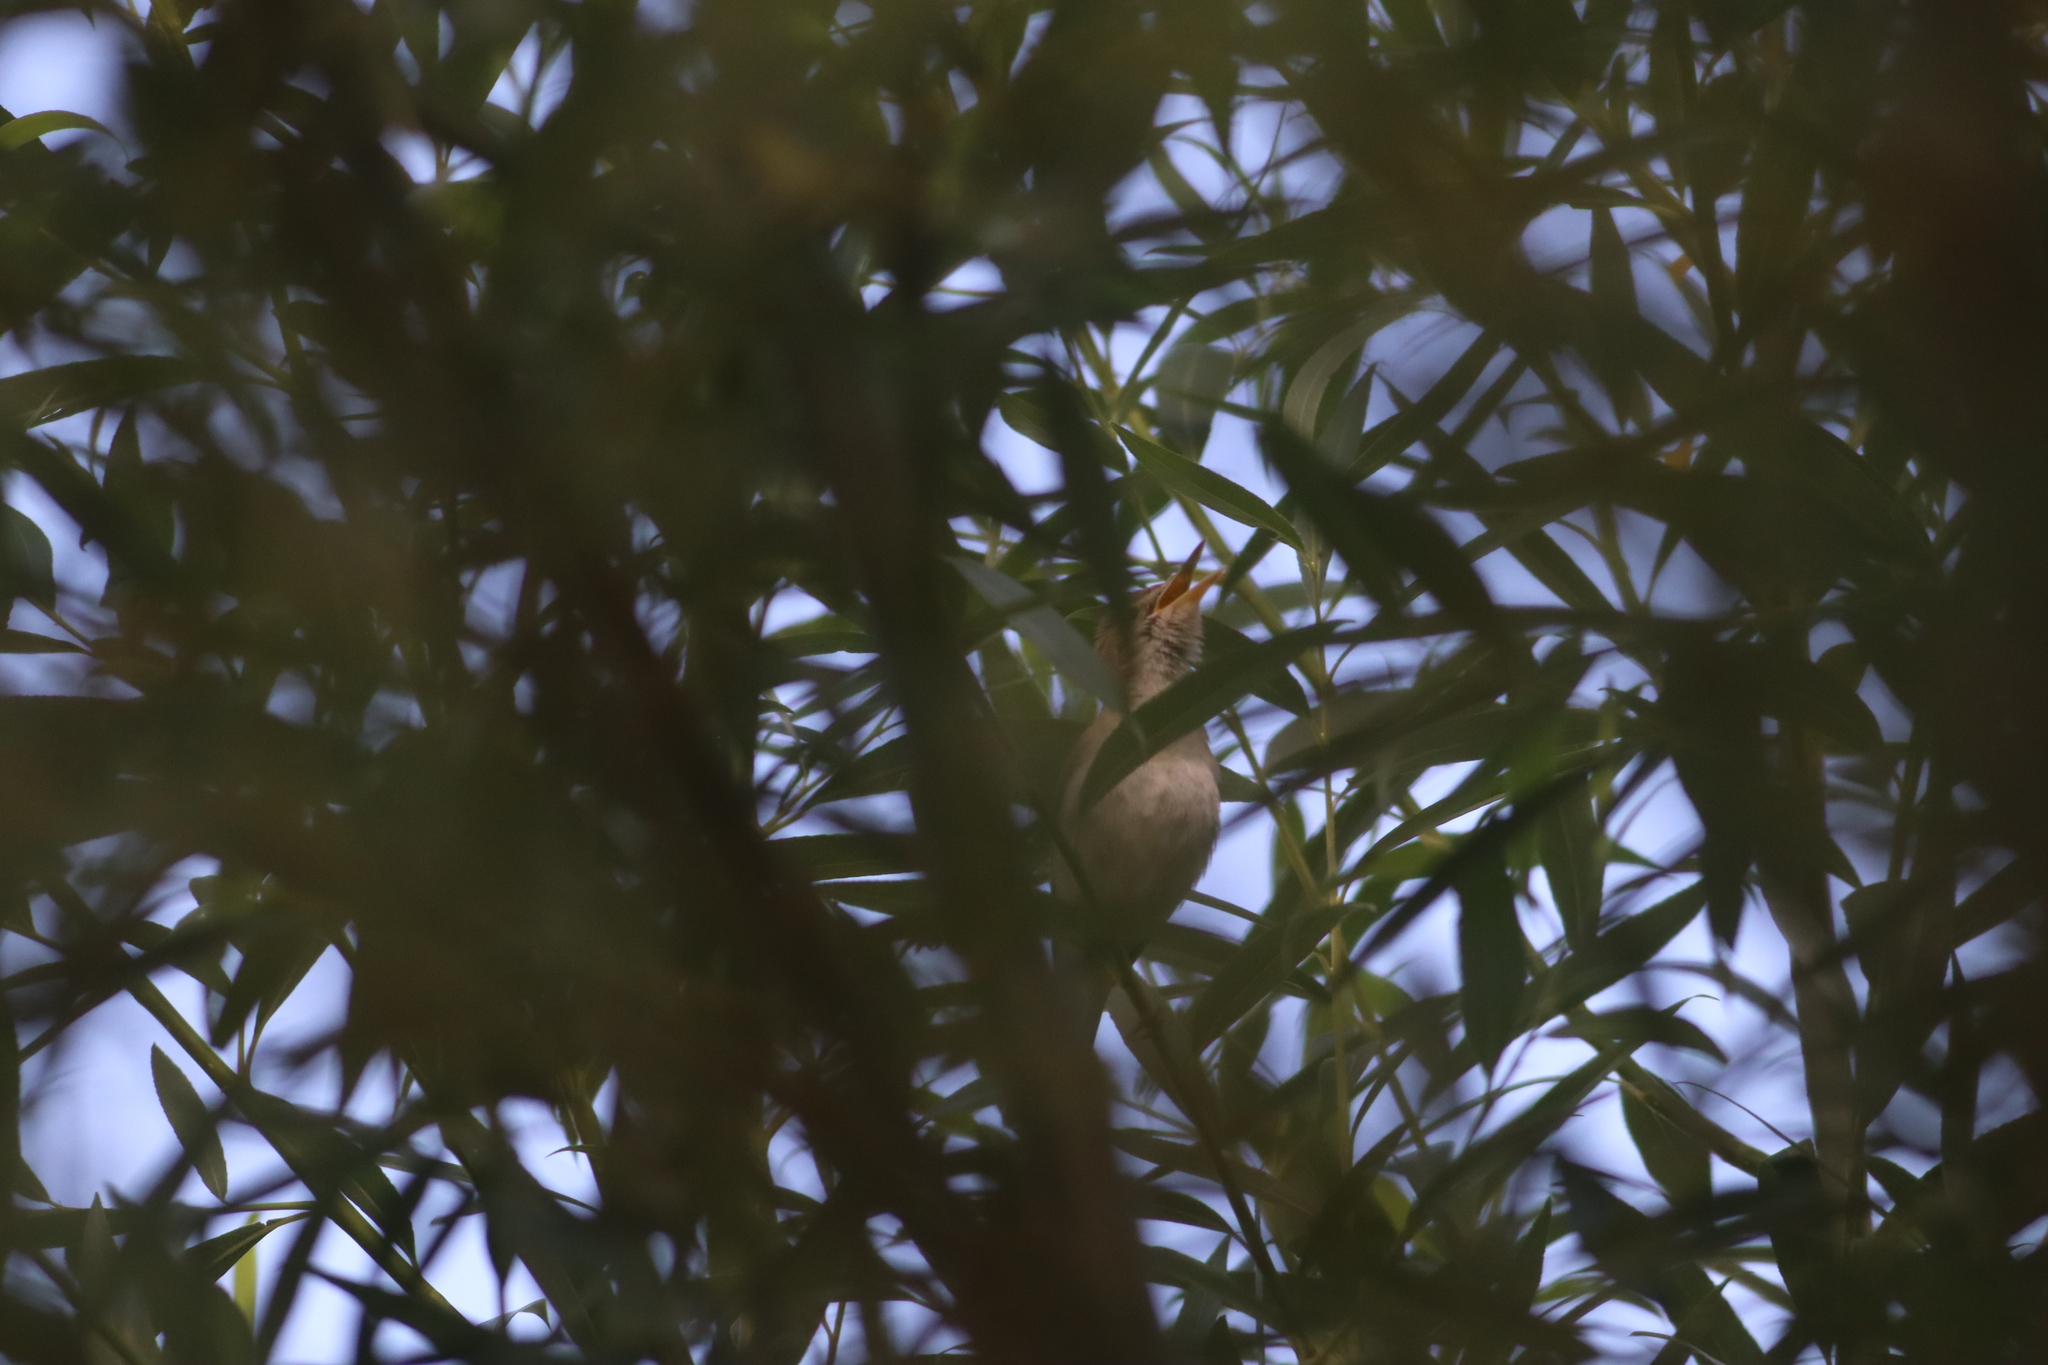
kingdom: Animalia
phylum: Chordata
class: Aves
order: Passeriformes
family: Acrocephalidae
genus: Iduna
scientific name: Iduna pallida
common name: Eastern olivaceous warbler
